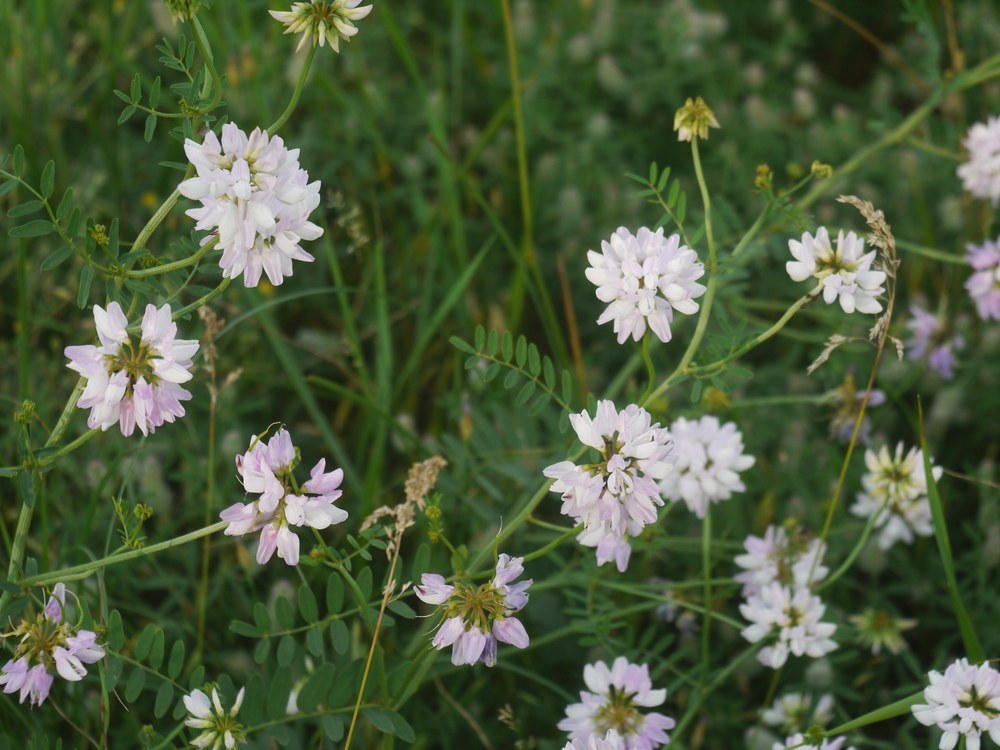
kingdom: Plantae
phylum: Tracheophyta
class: Magnoliopsida
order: Fabales
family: Fabaceae
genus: Coronilla
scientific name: Coronilla varia
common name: Crownvetch
